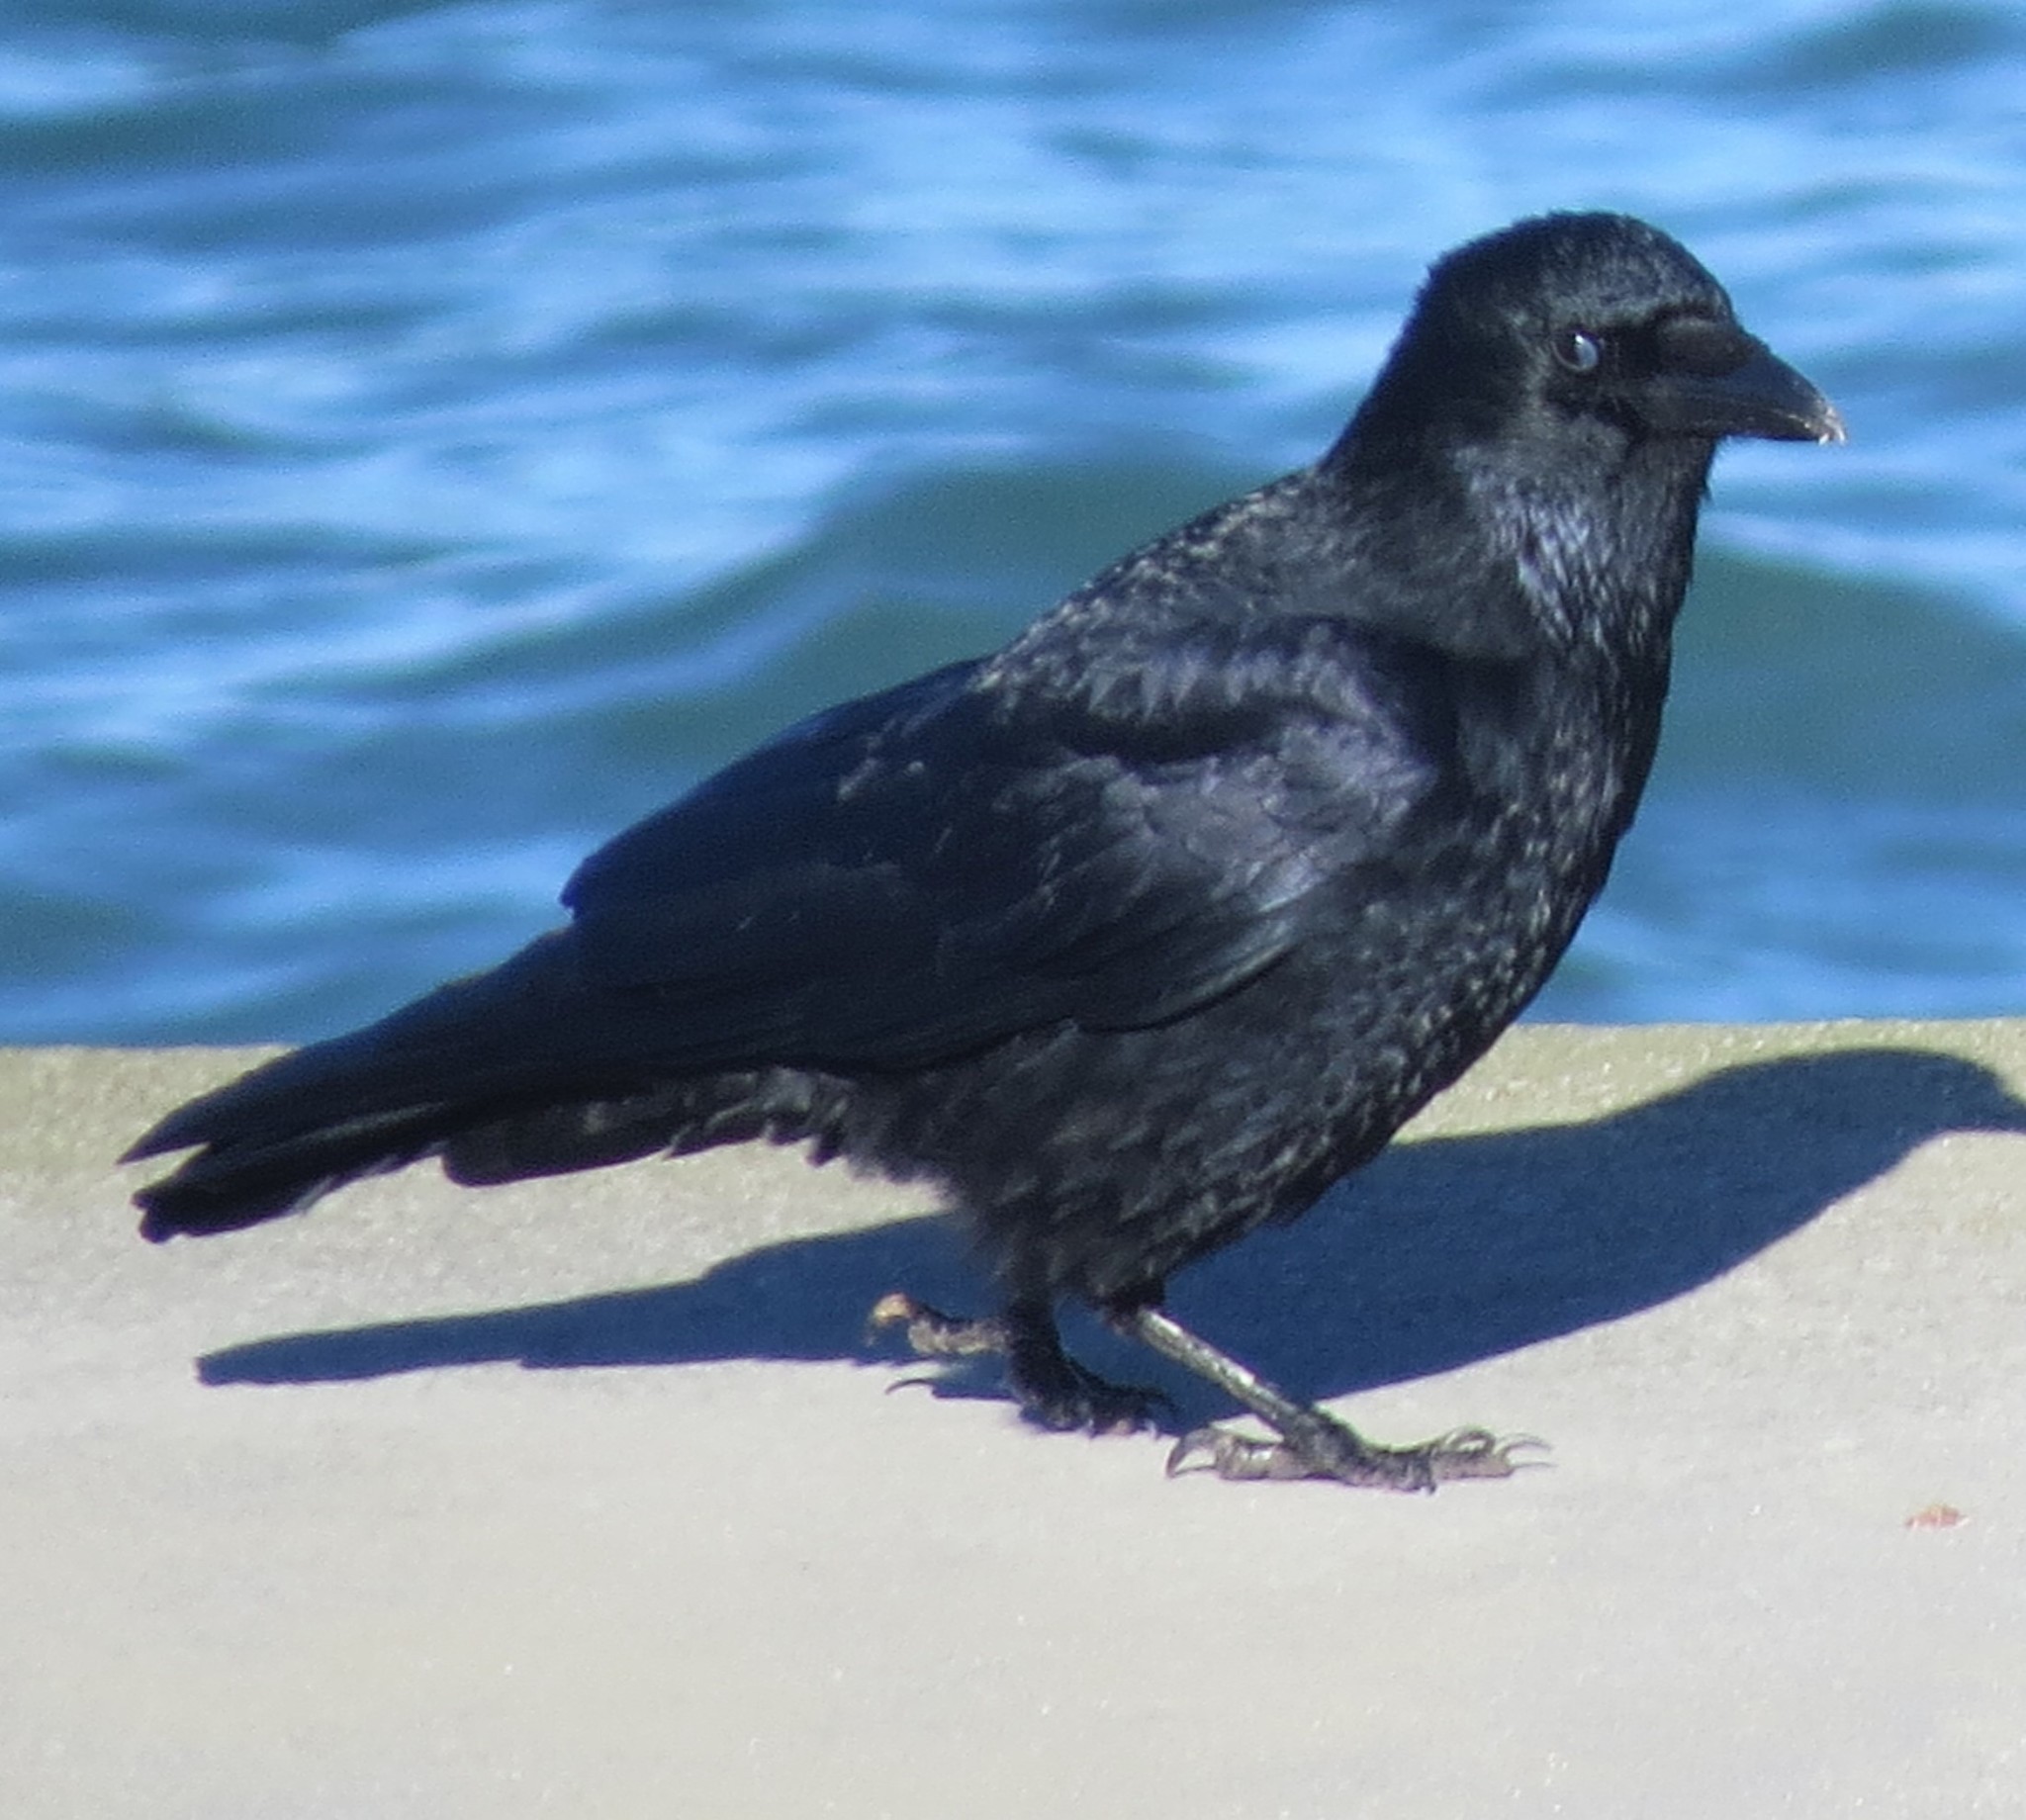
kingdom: Animalia
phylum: Chordata
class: Aves
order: Passeriformes
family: Corvidae
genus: Corvus
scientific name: Corvus corone
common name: Carrion crow
